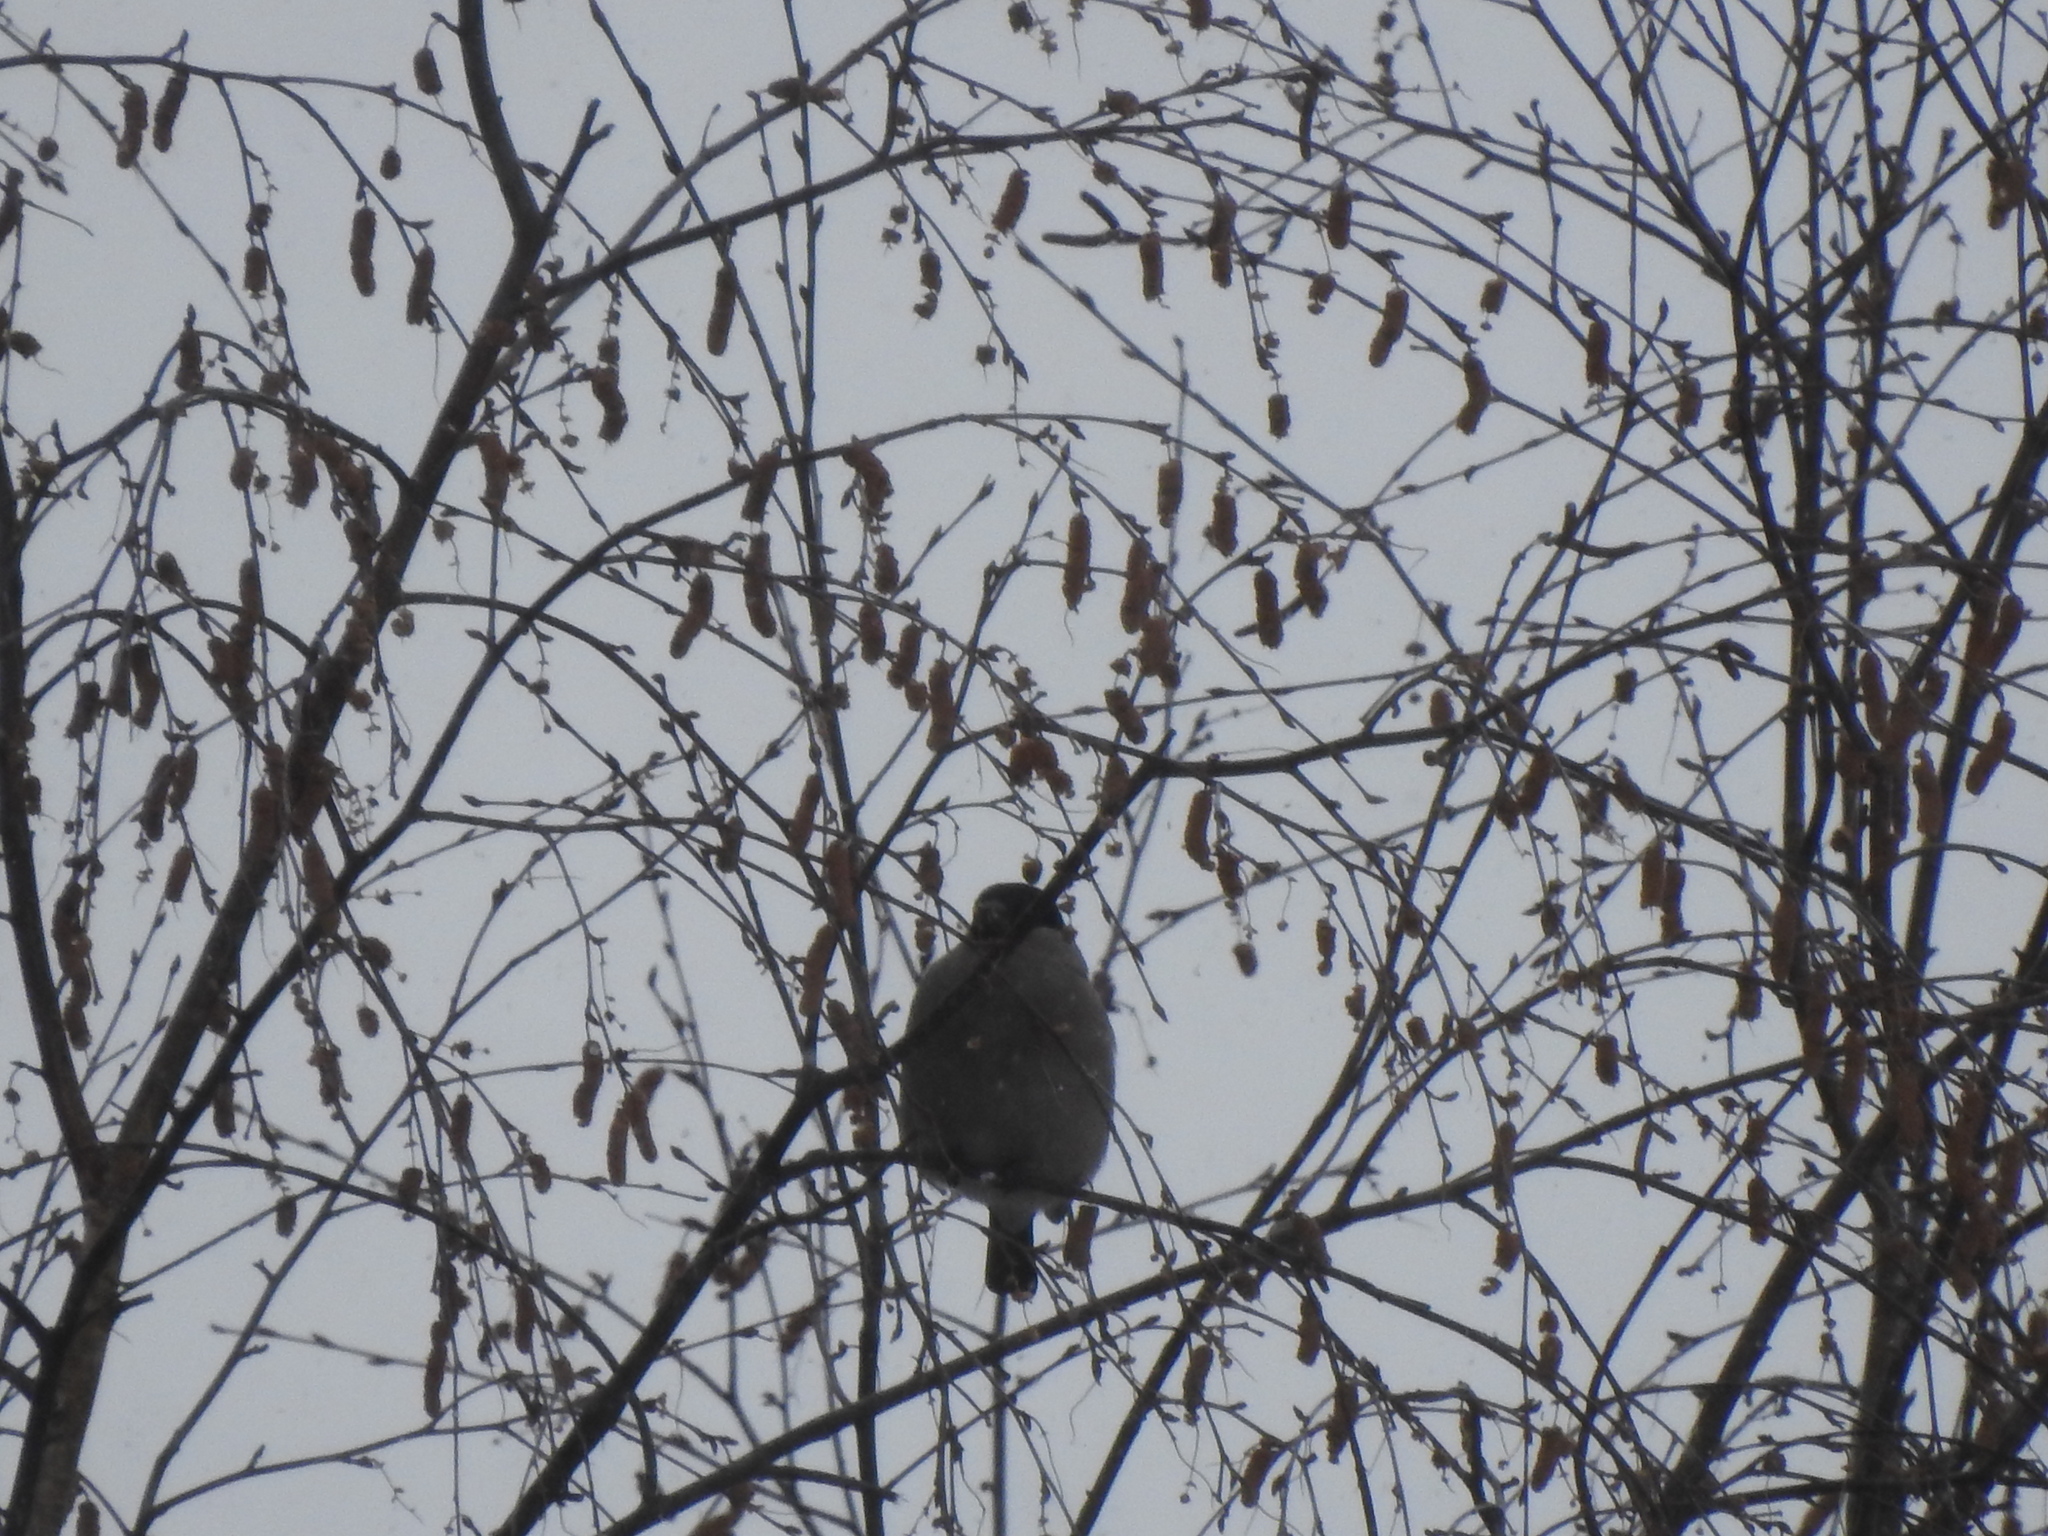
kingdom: Animalia
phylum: Chordata
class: Aves
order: Passeriformes
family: Fringillidae
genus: Pyrrhula
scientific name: Pyrrhula pyrrhula
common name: Eurasian bullfinch
